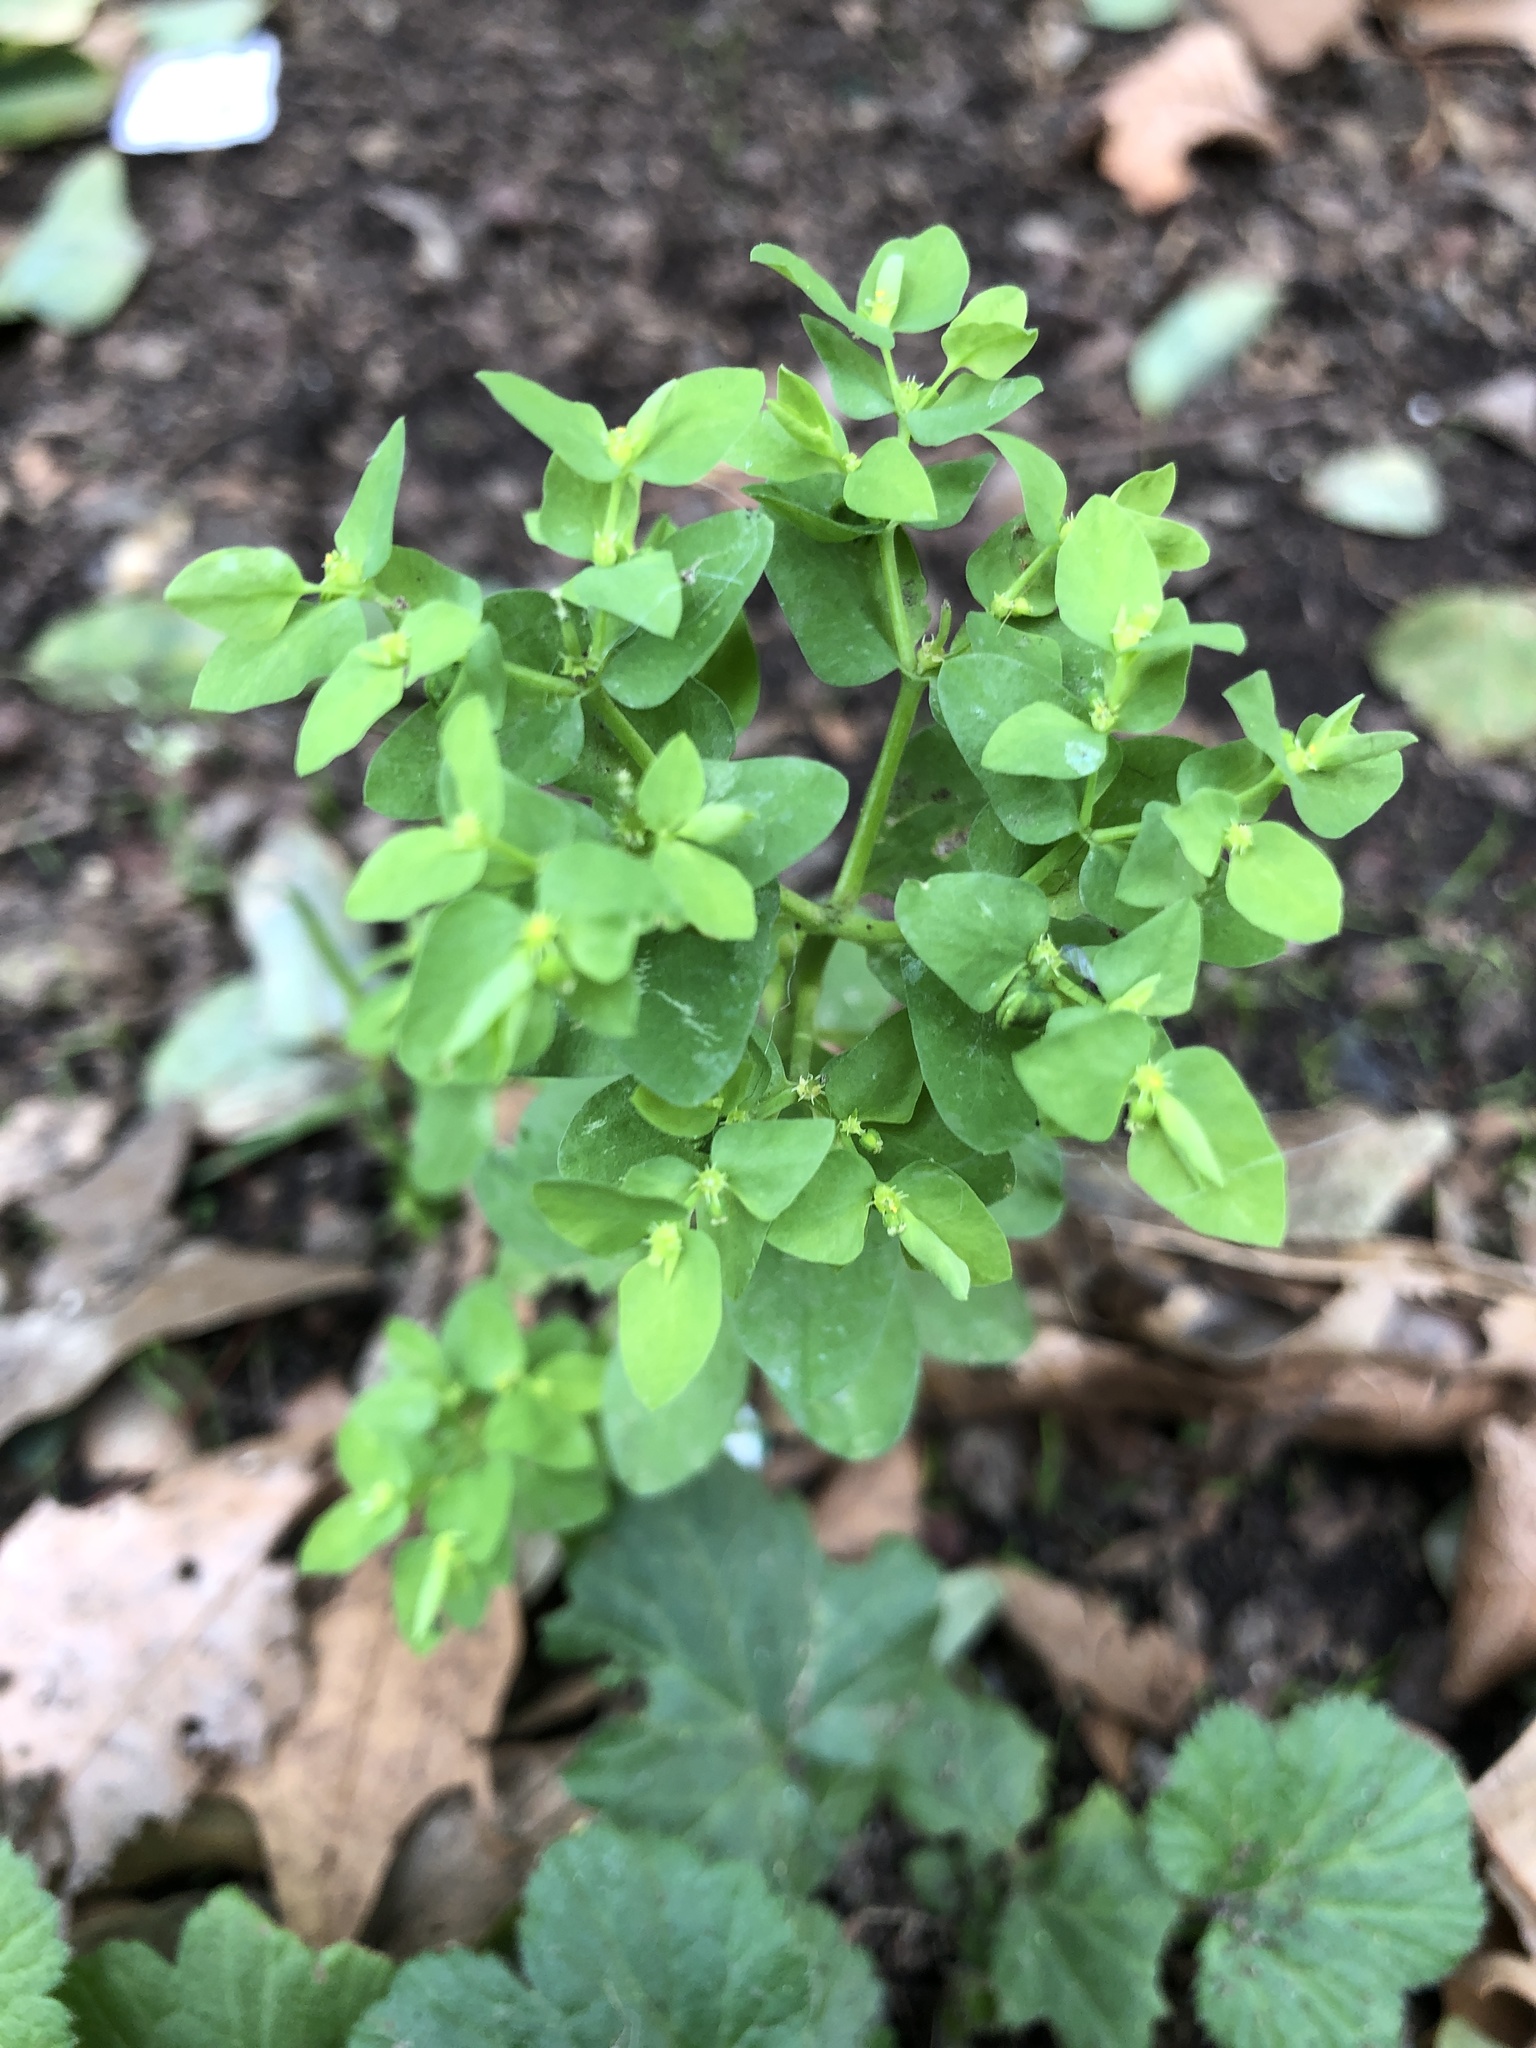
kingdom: Plantae
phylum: Tracheophyta
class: Magnoliopsida
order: Malpighiales
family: Euphorbiaceae
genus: Euphorbia
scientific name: Euphorbia peplus
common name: Petty spurge
